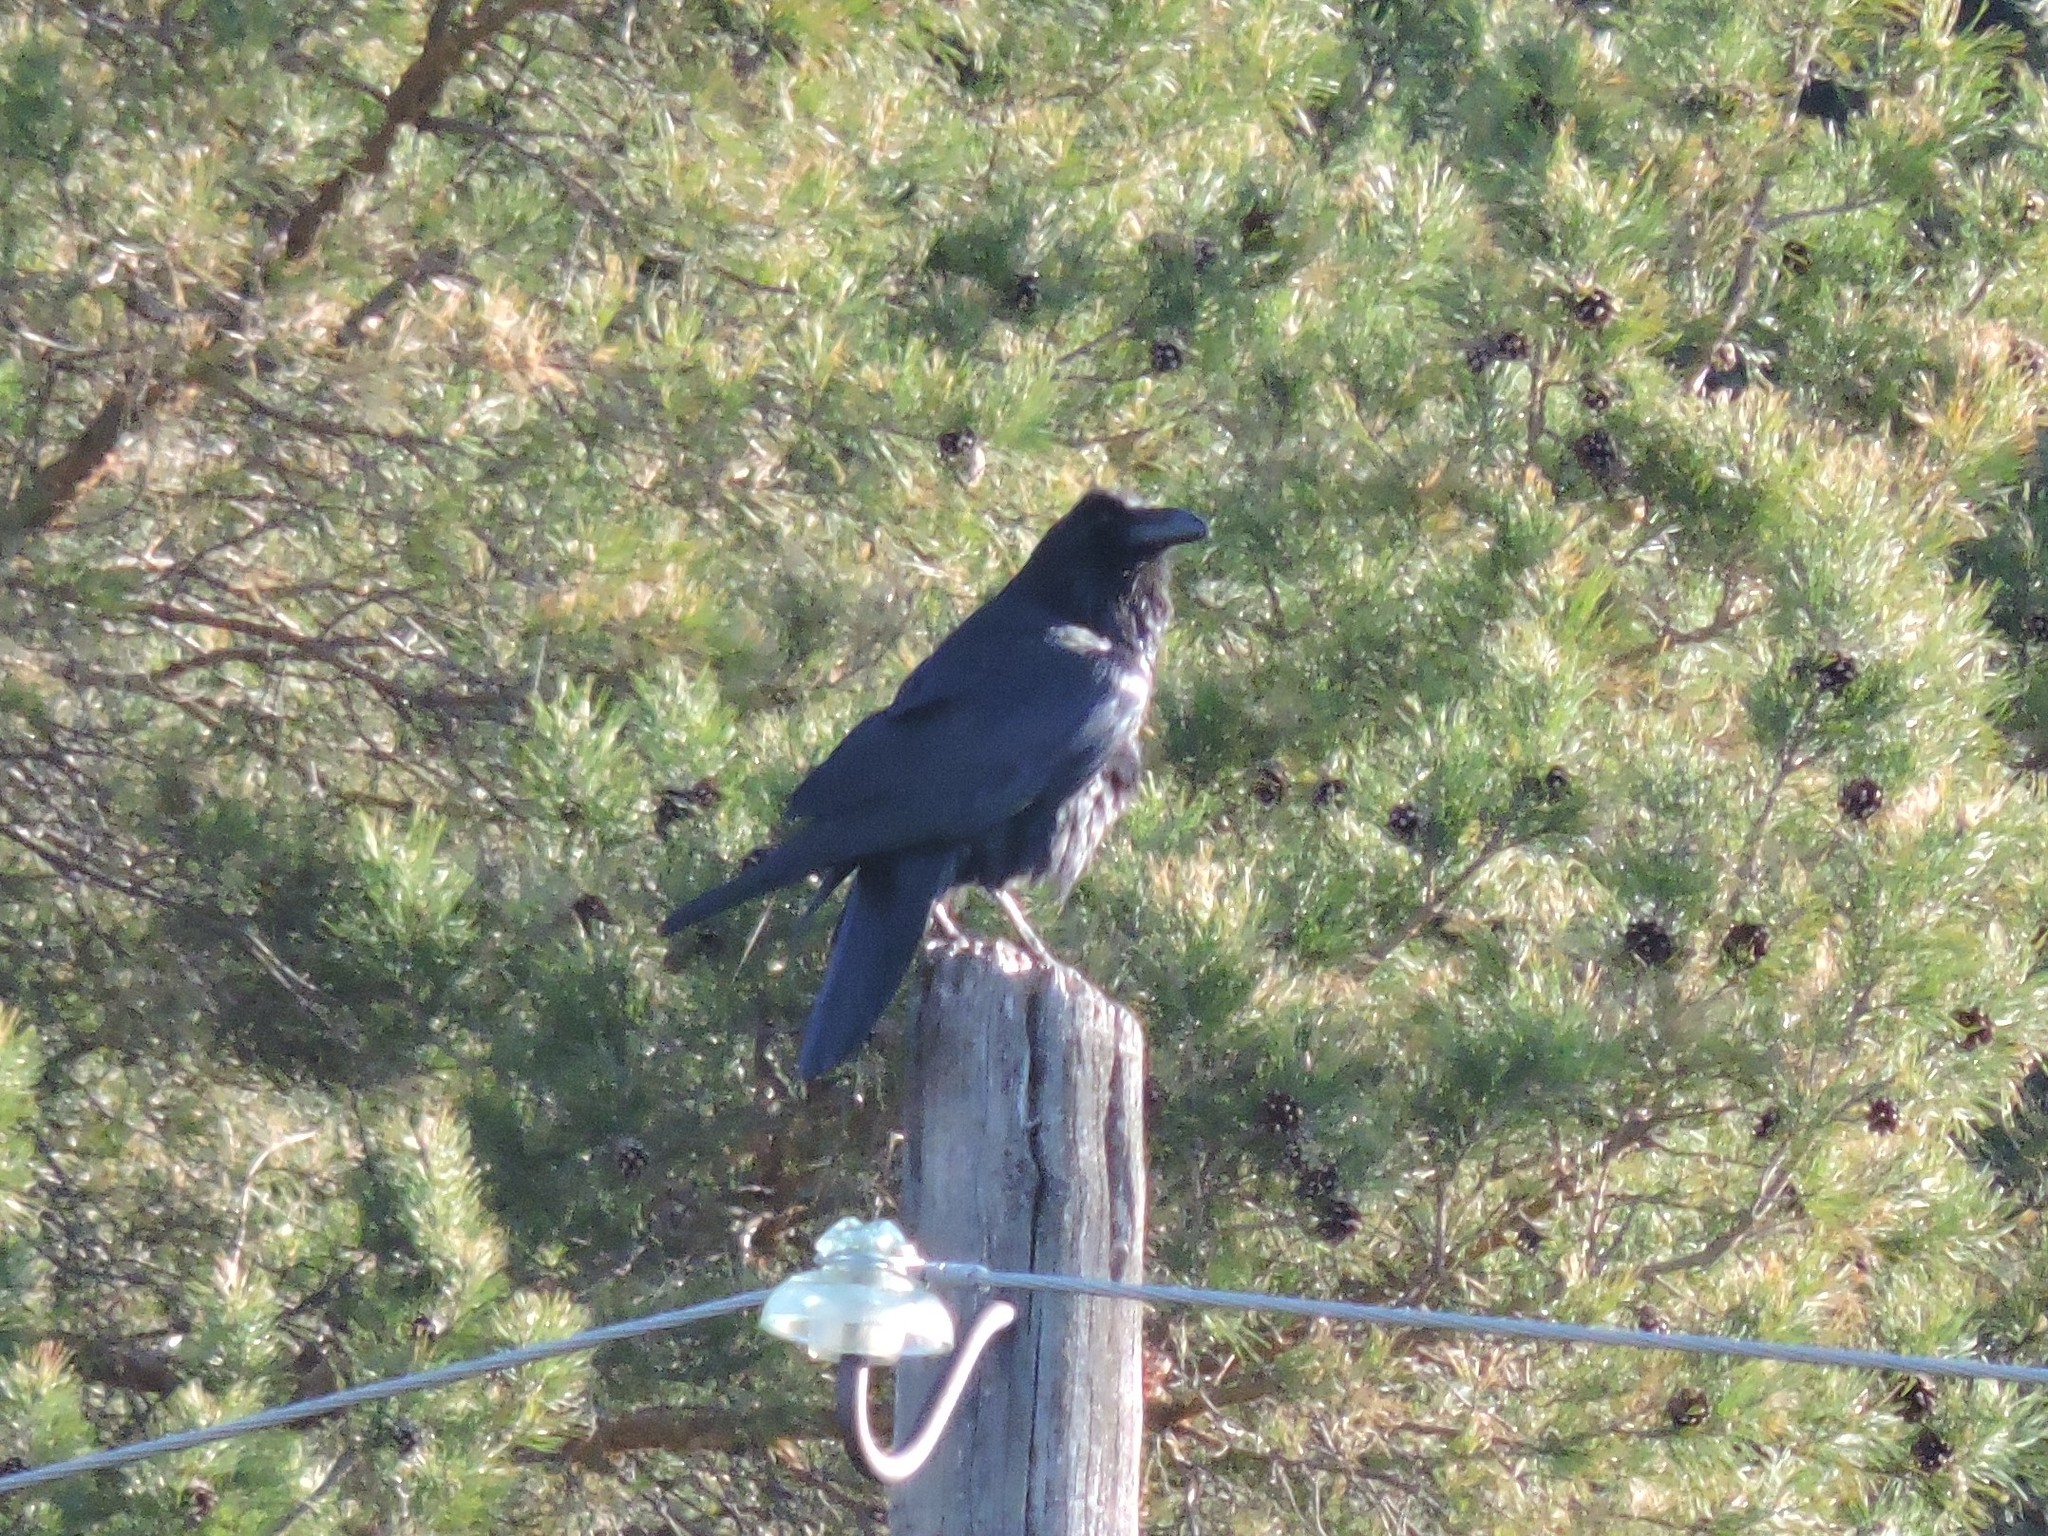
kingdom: Animalia
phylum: Chordata
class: Aves
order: Passeriformes
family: Corvidae
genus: Corvus
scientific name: Corvus corax
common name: Common raven
